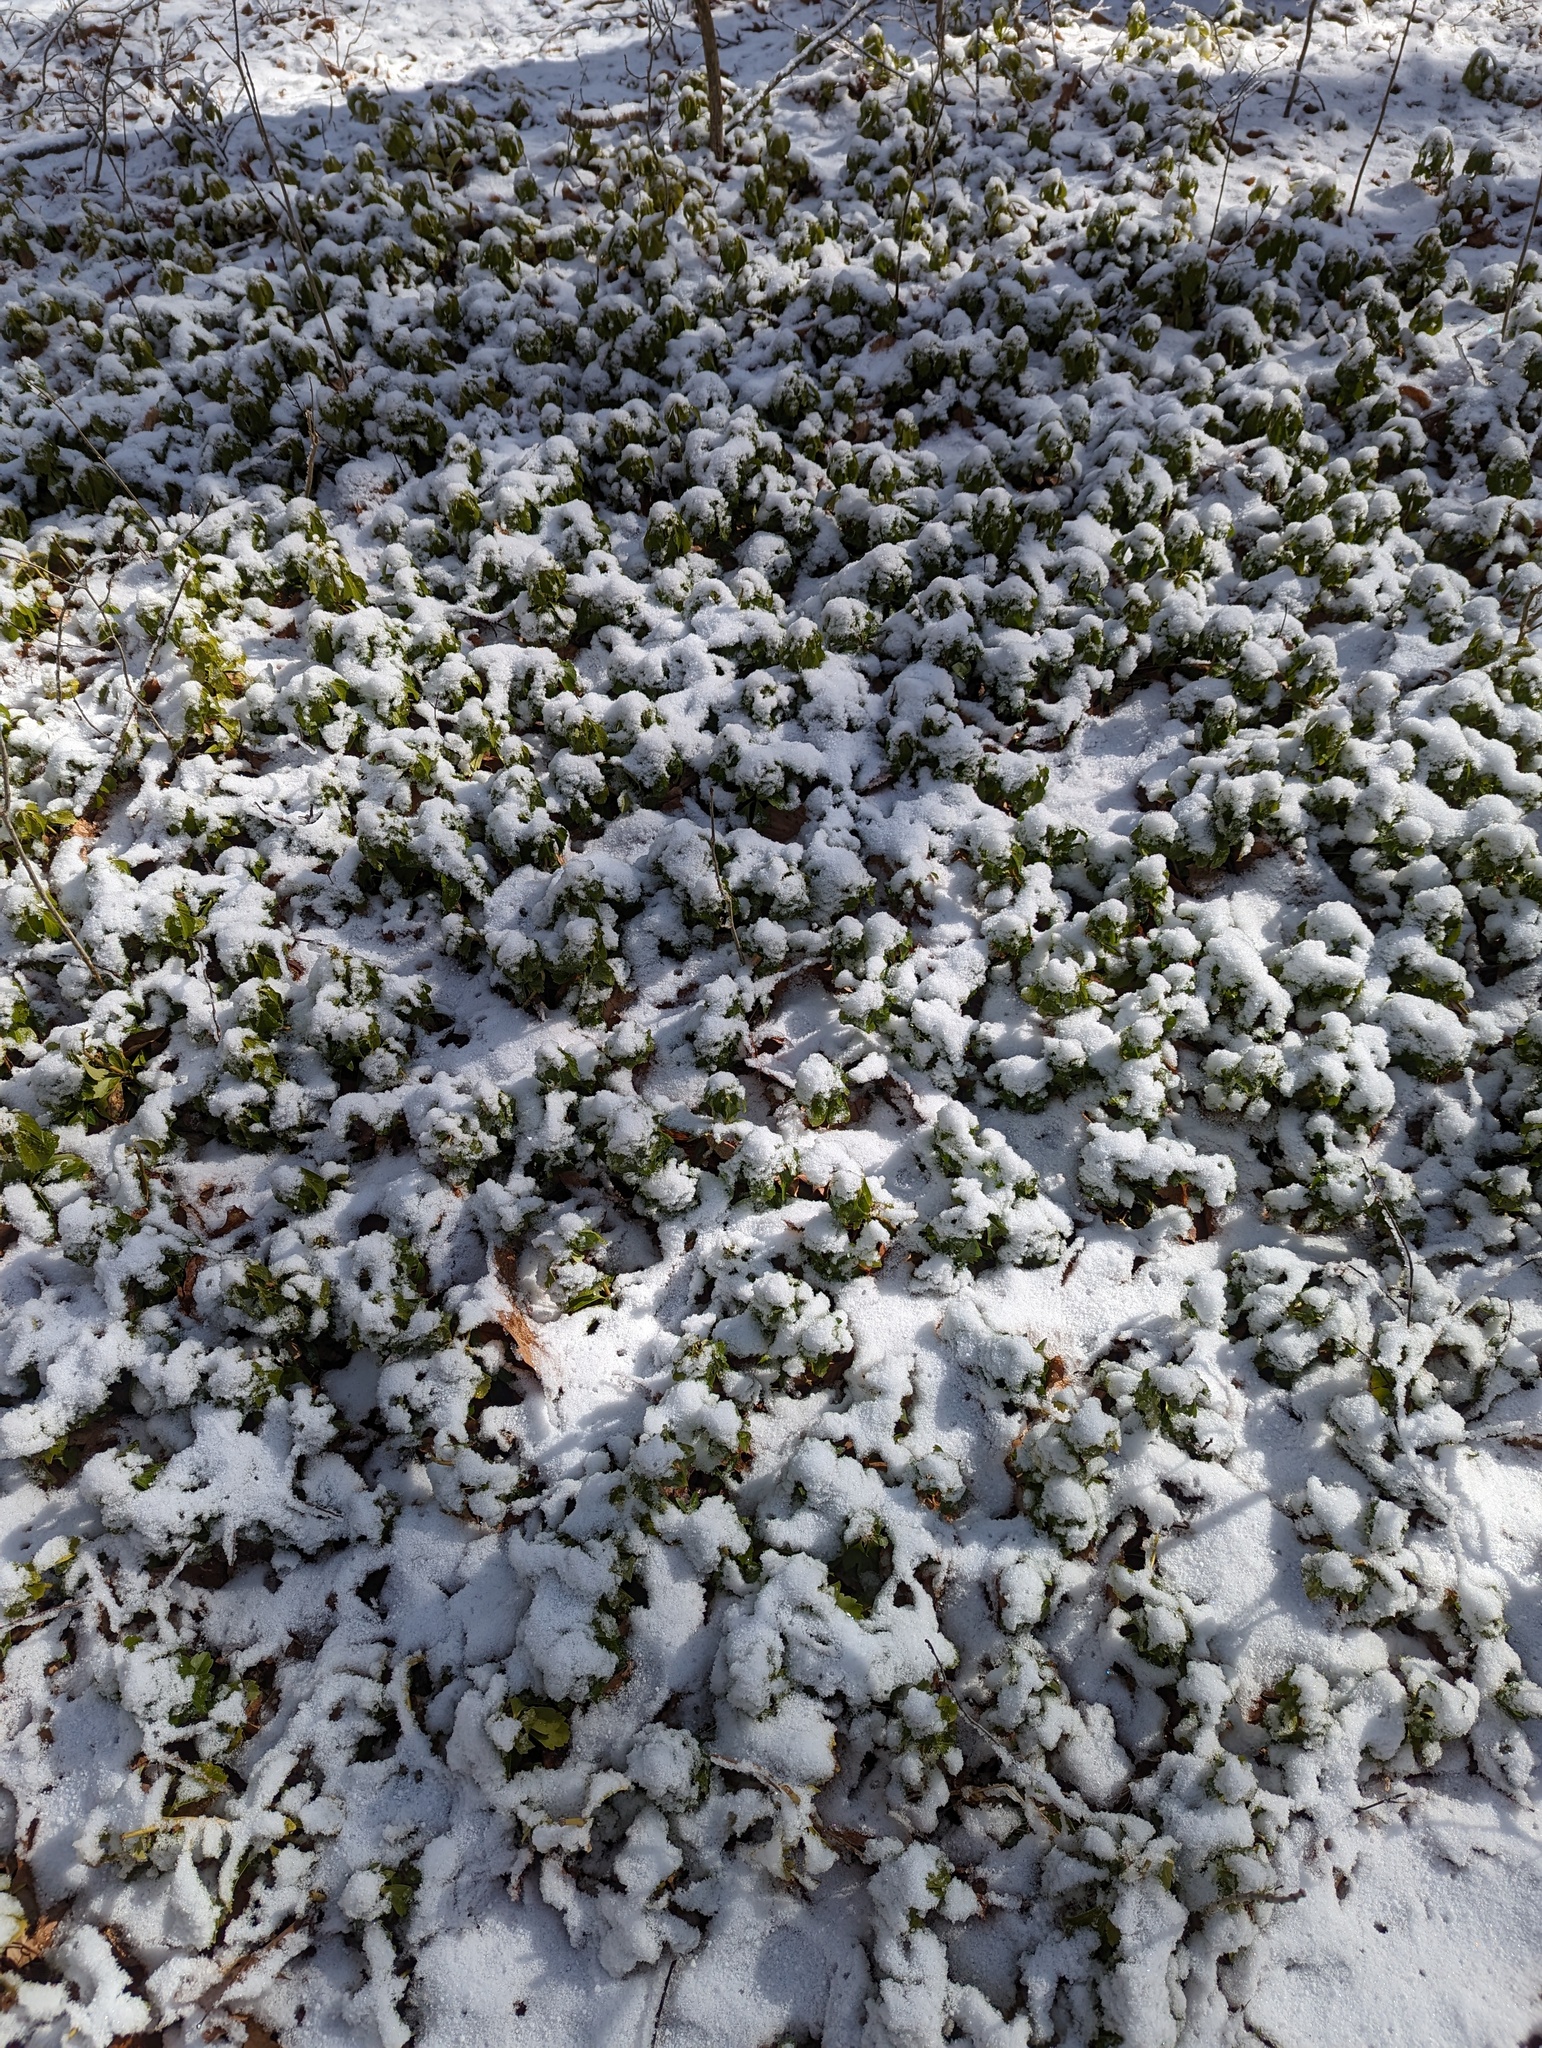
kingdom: Plantae
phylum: Tracheophyta
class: Magnoliopsida
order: Buxales
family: Buxaceae
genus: Pachysandra
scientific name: Pachysandra terminalis
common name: Japanese pachysandra
